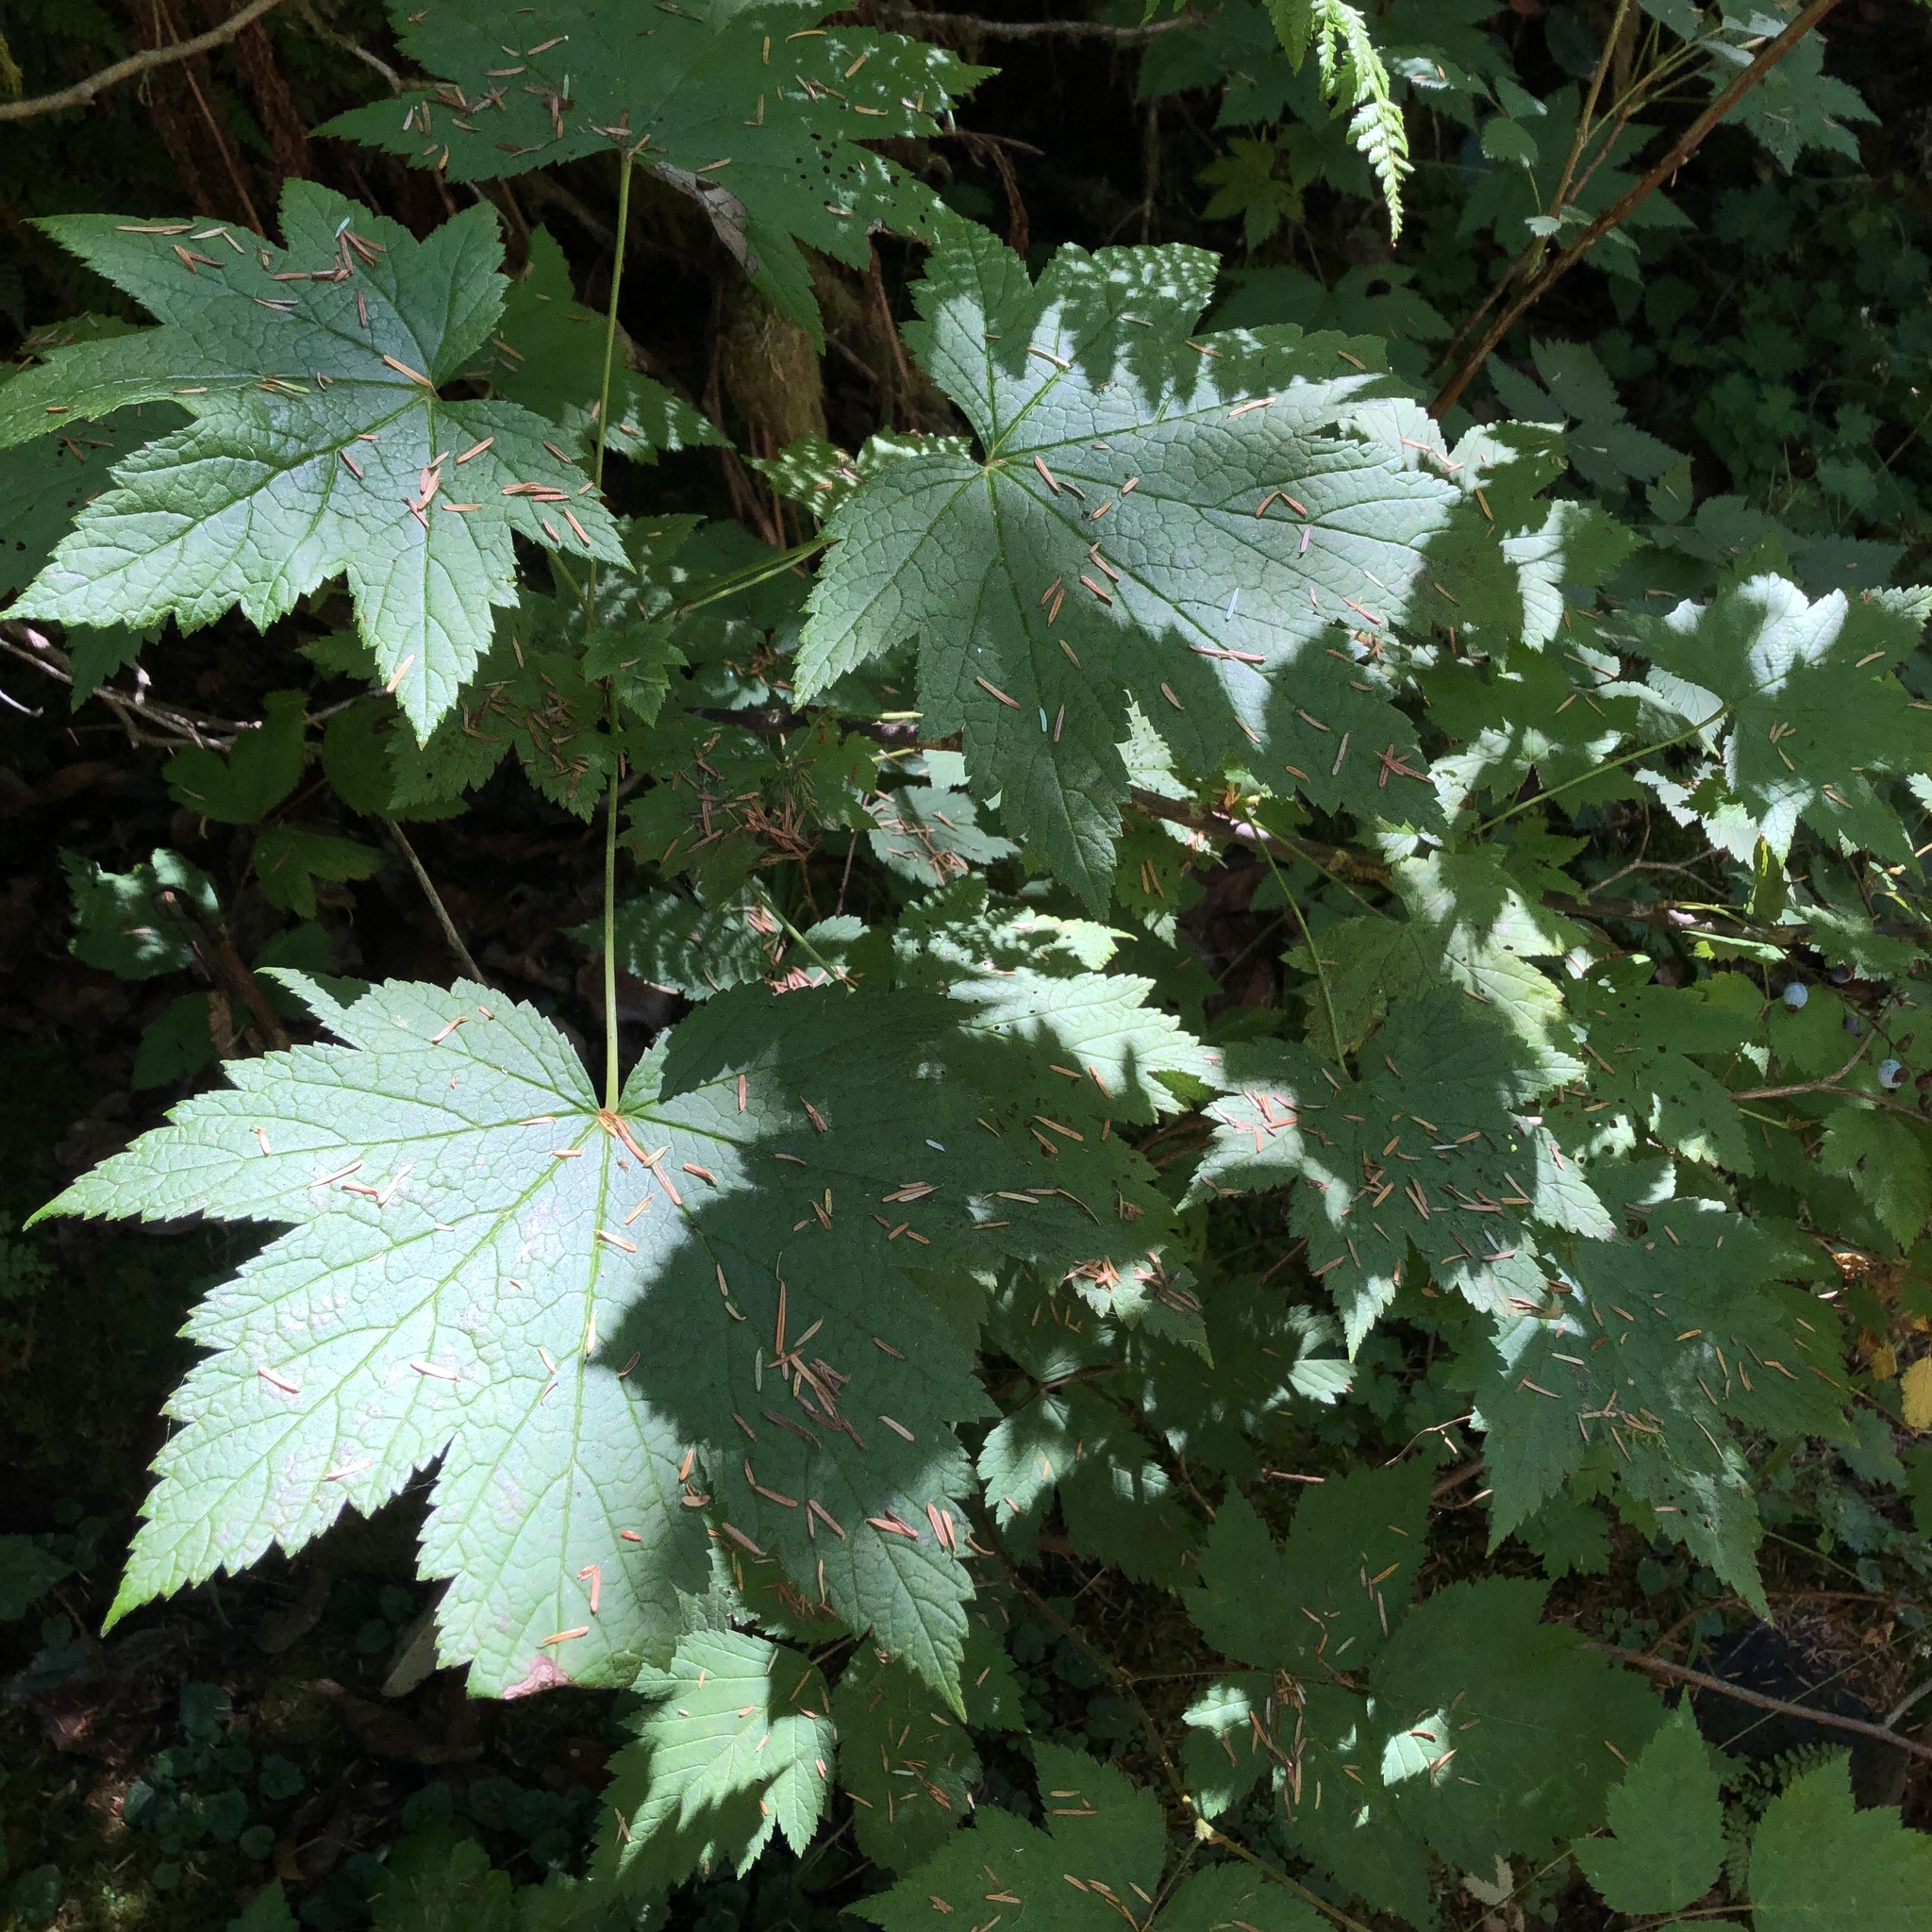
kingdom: Plantae
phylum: Tracheophyta
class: Magnoliopsida
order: Saxifragales
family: Grossulariaceae
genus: Ribes
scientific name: Ribes bracteosum
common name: California black currant
